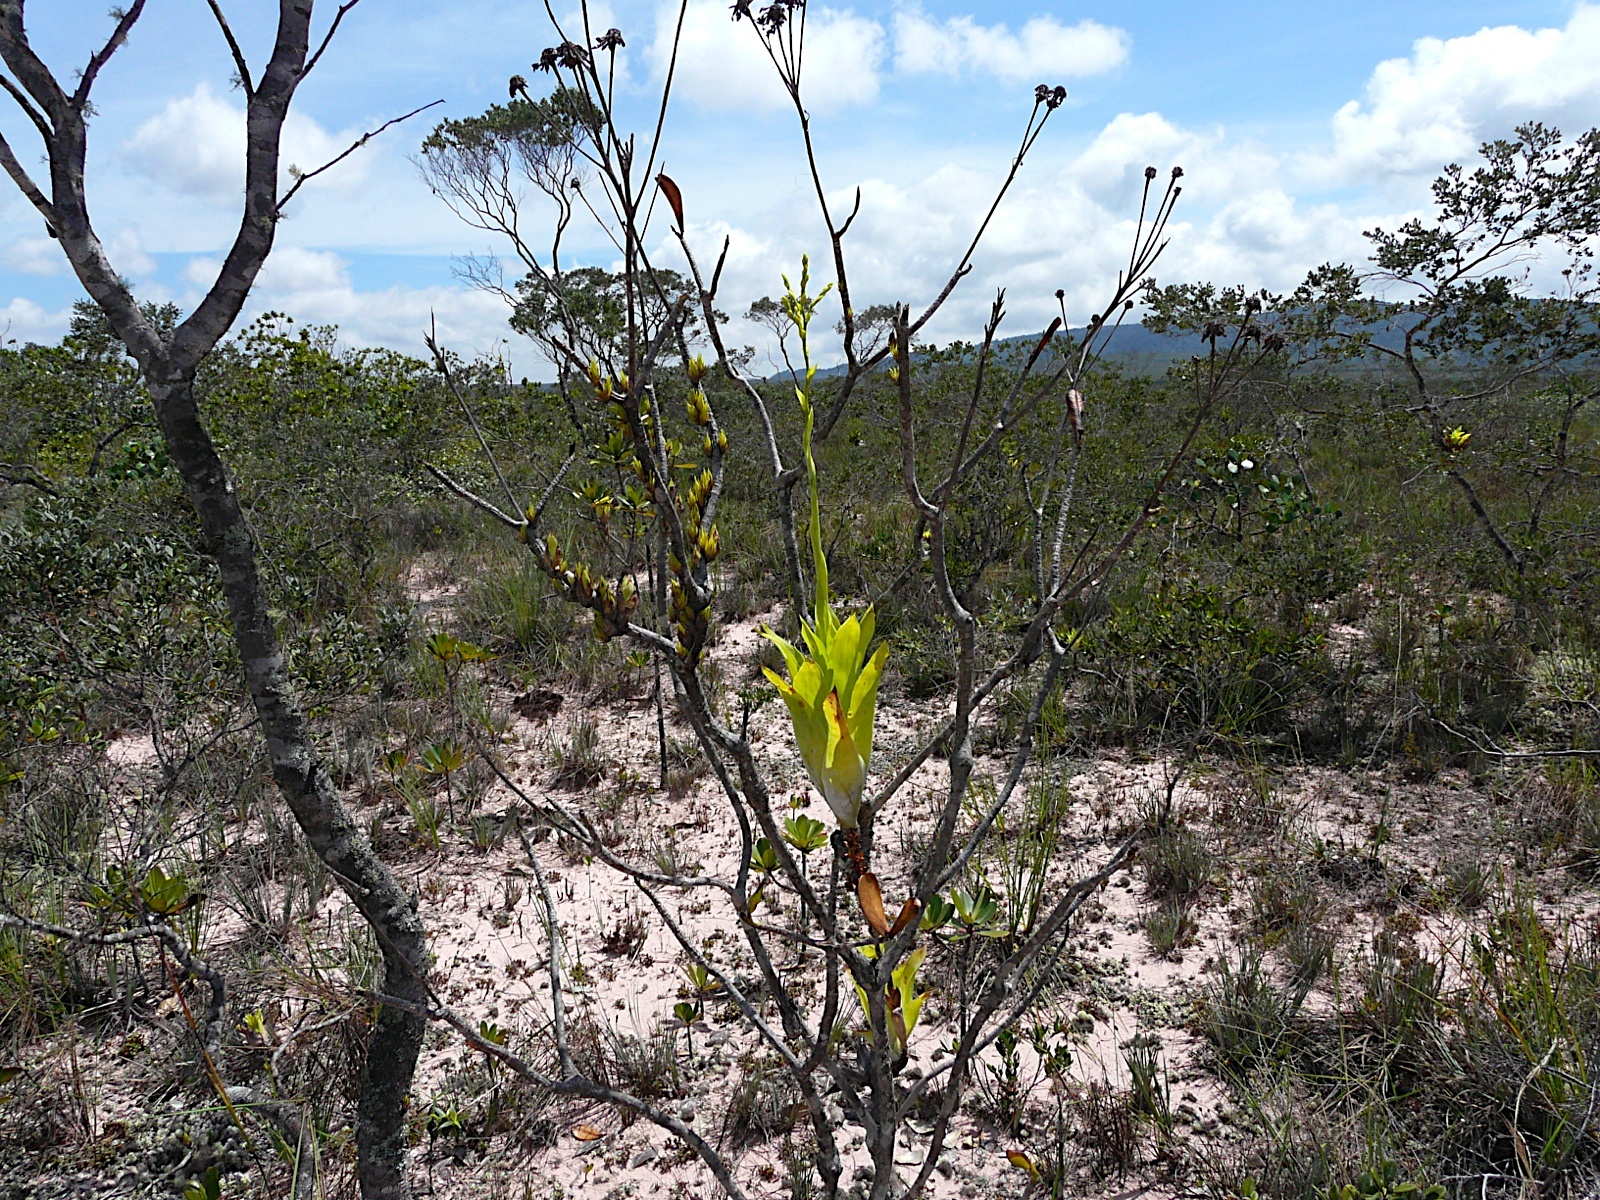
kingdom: Plantae
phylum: Tracheophyta
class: Liliopsida
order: Poales
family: Bromeliaceae
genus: Catopsis
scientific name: Catopsis berteroniana
